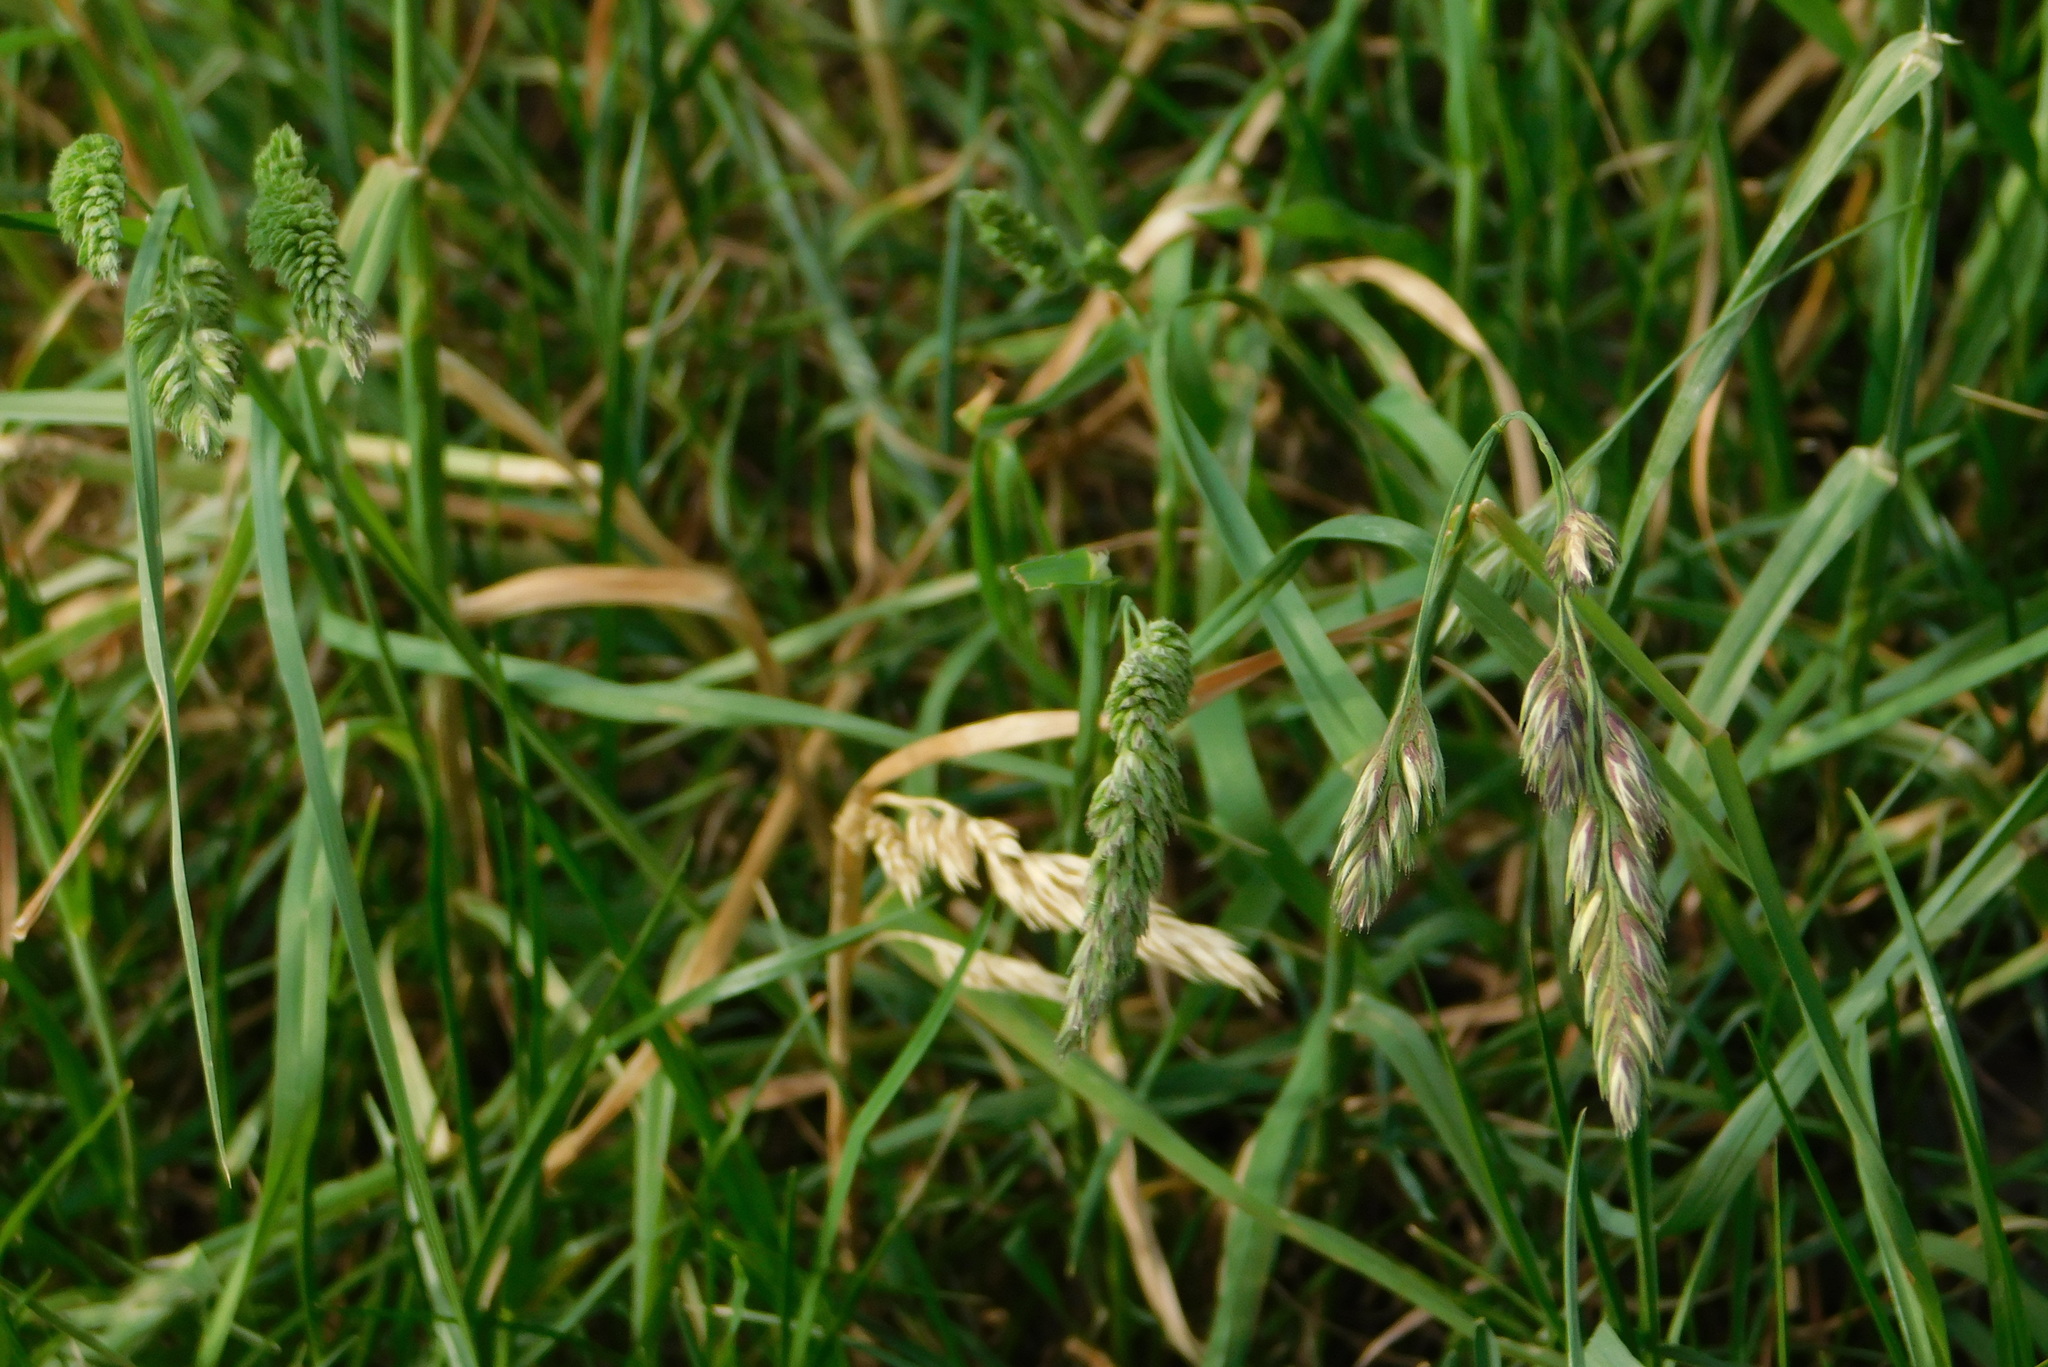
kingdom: Plantae
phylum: Tracheophyta
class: Liliopsida
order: Poales
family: Poaceae
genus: Dactylis
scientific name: Dactylis glomerata
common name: Orchardgrass
